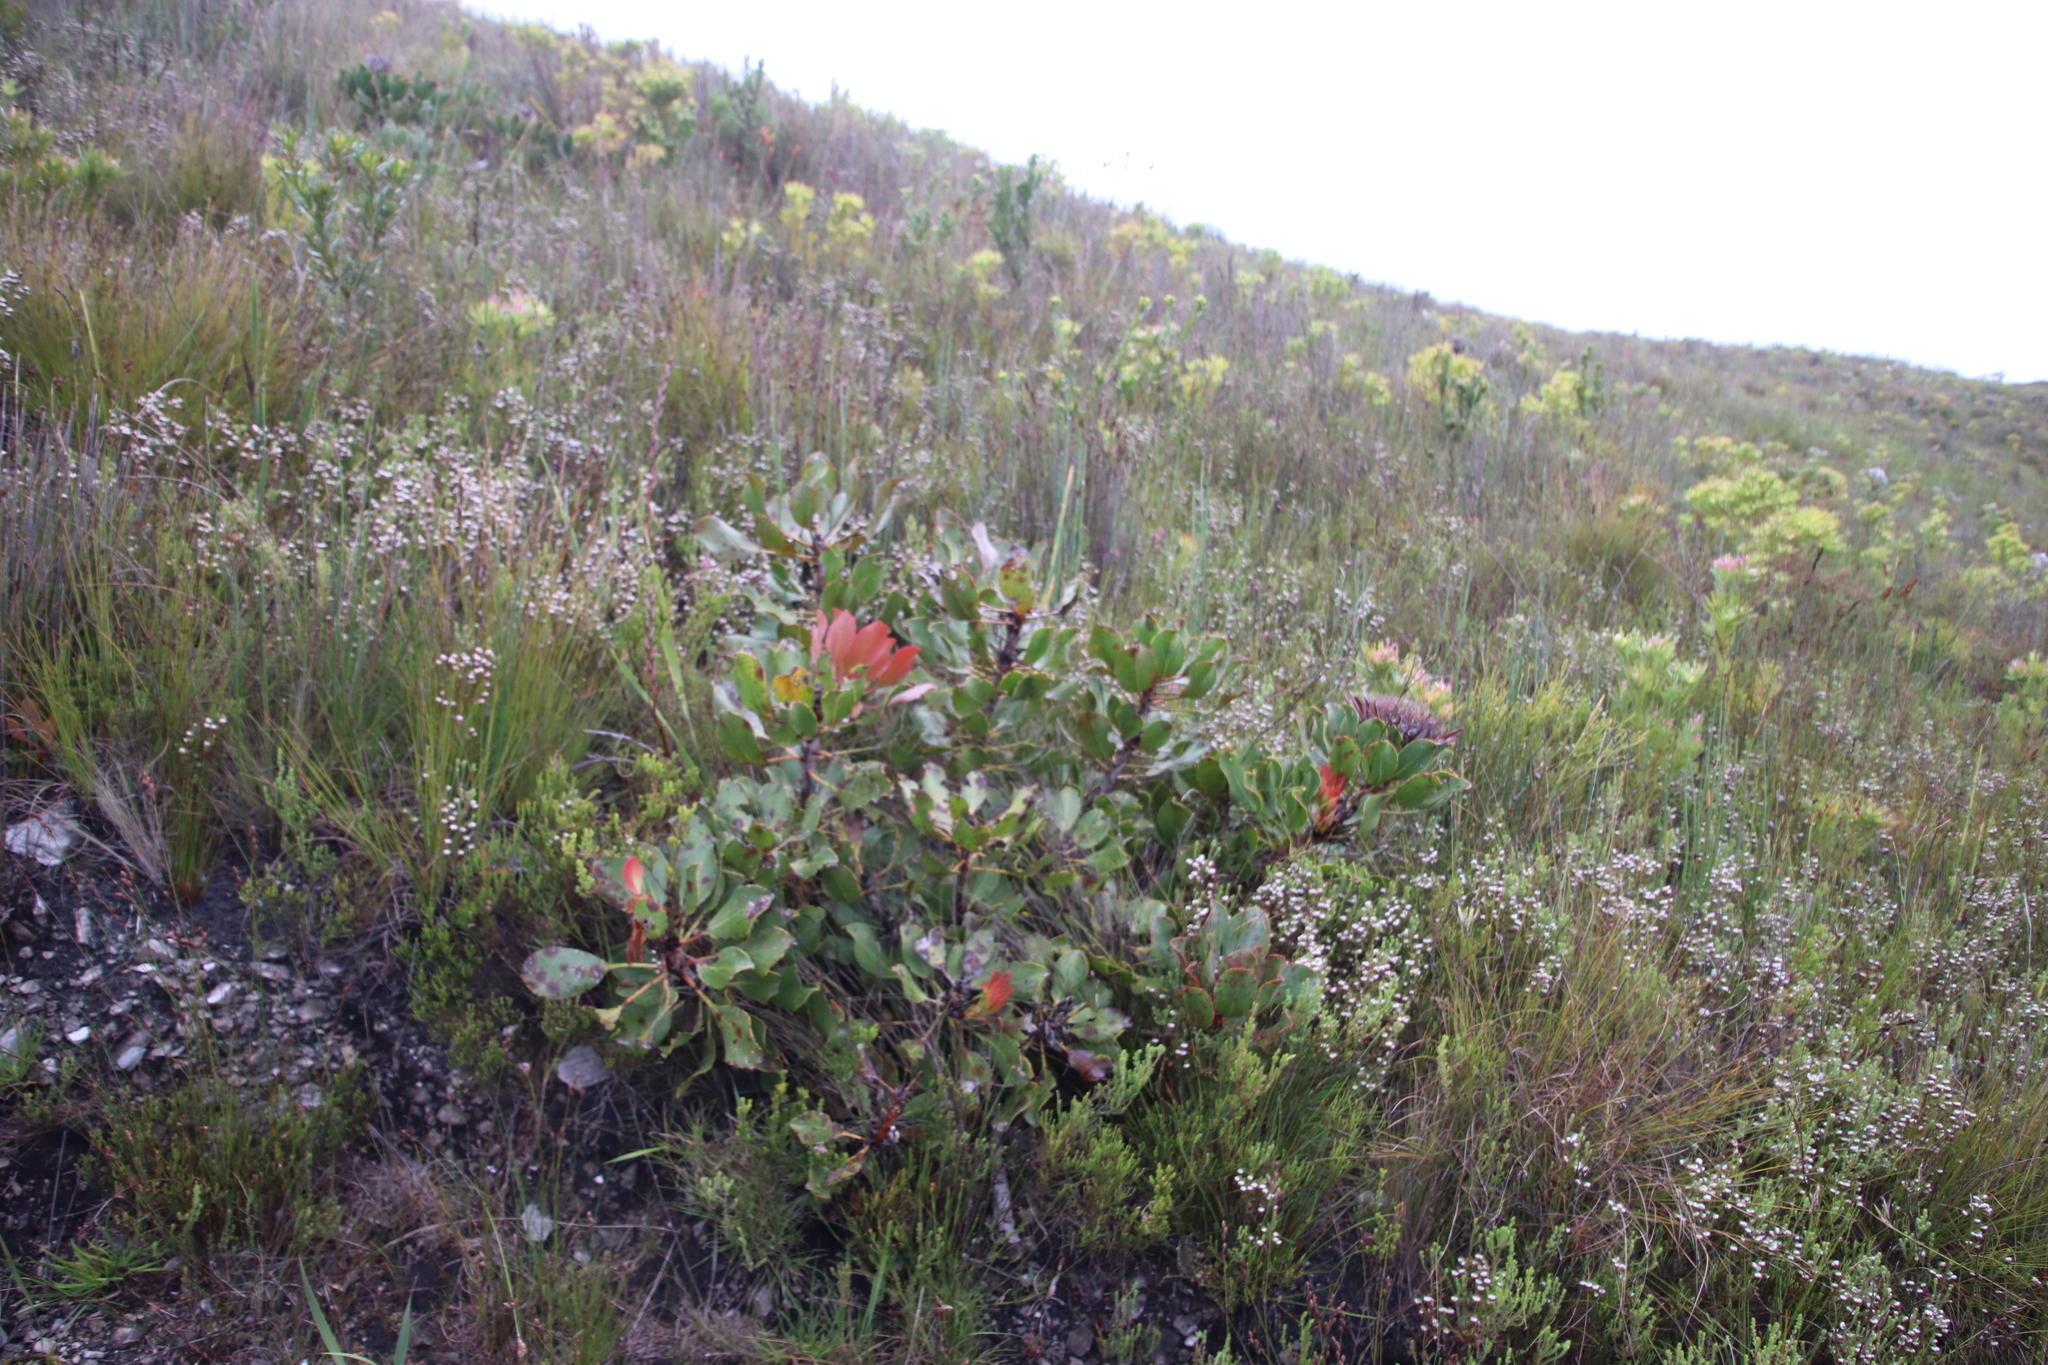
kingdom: Plantae
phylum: Tracheophyta
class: Magnoliopsida
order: Proteales
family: Proteaceae
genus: Protea
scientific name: Protea cynaroides
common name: King protea
